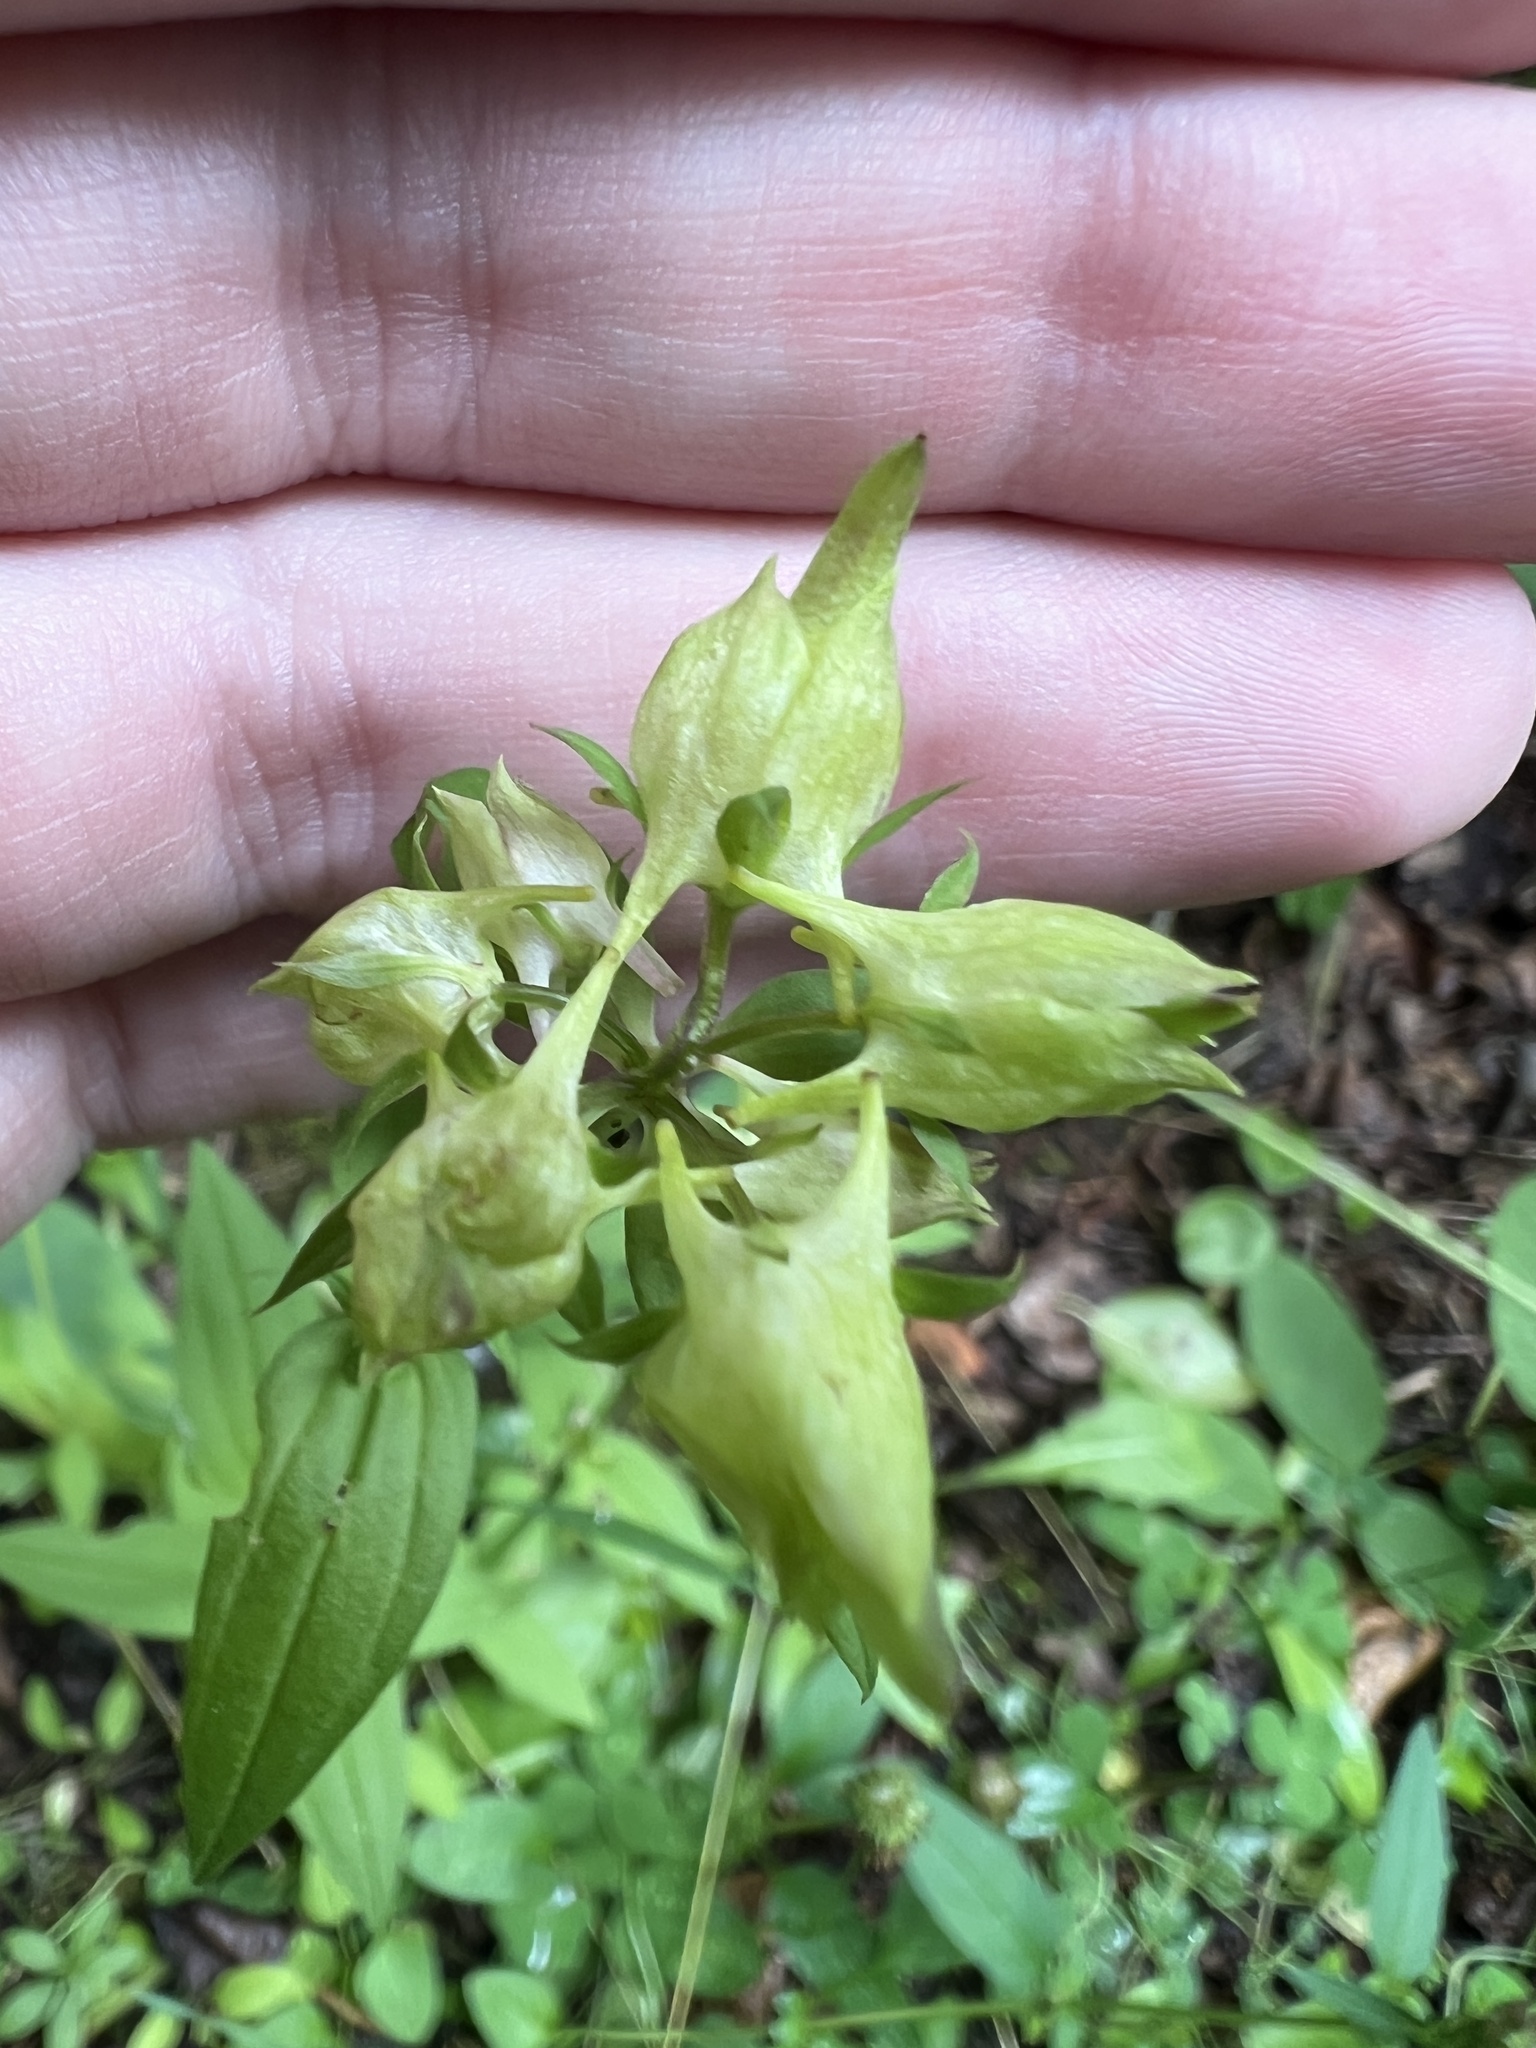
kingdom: Plantae
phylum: Tracheophyta
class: Magnoliopsida
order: Gentianales
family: Gentianaceae
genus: Halenia
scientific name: Halenia deflexa
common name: American spurred gentian
